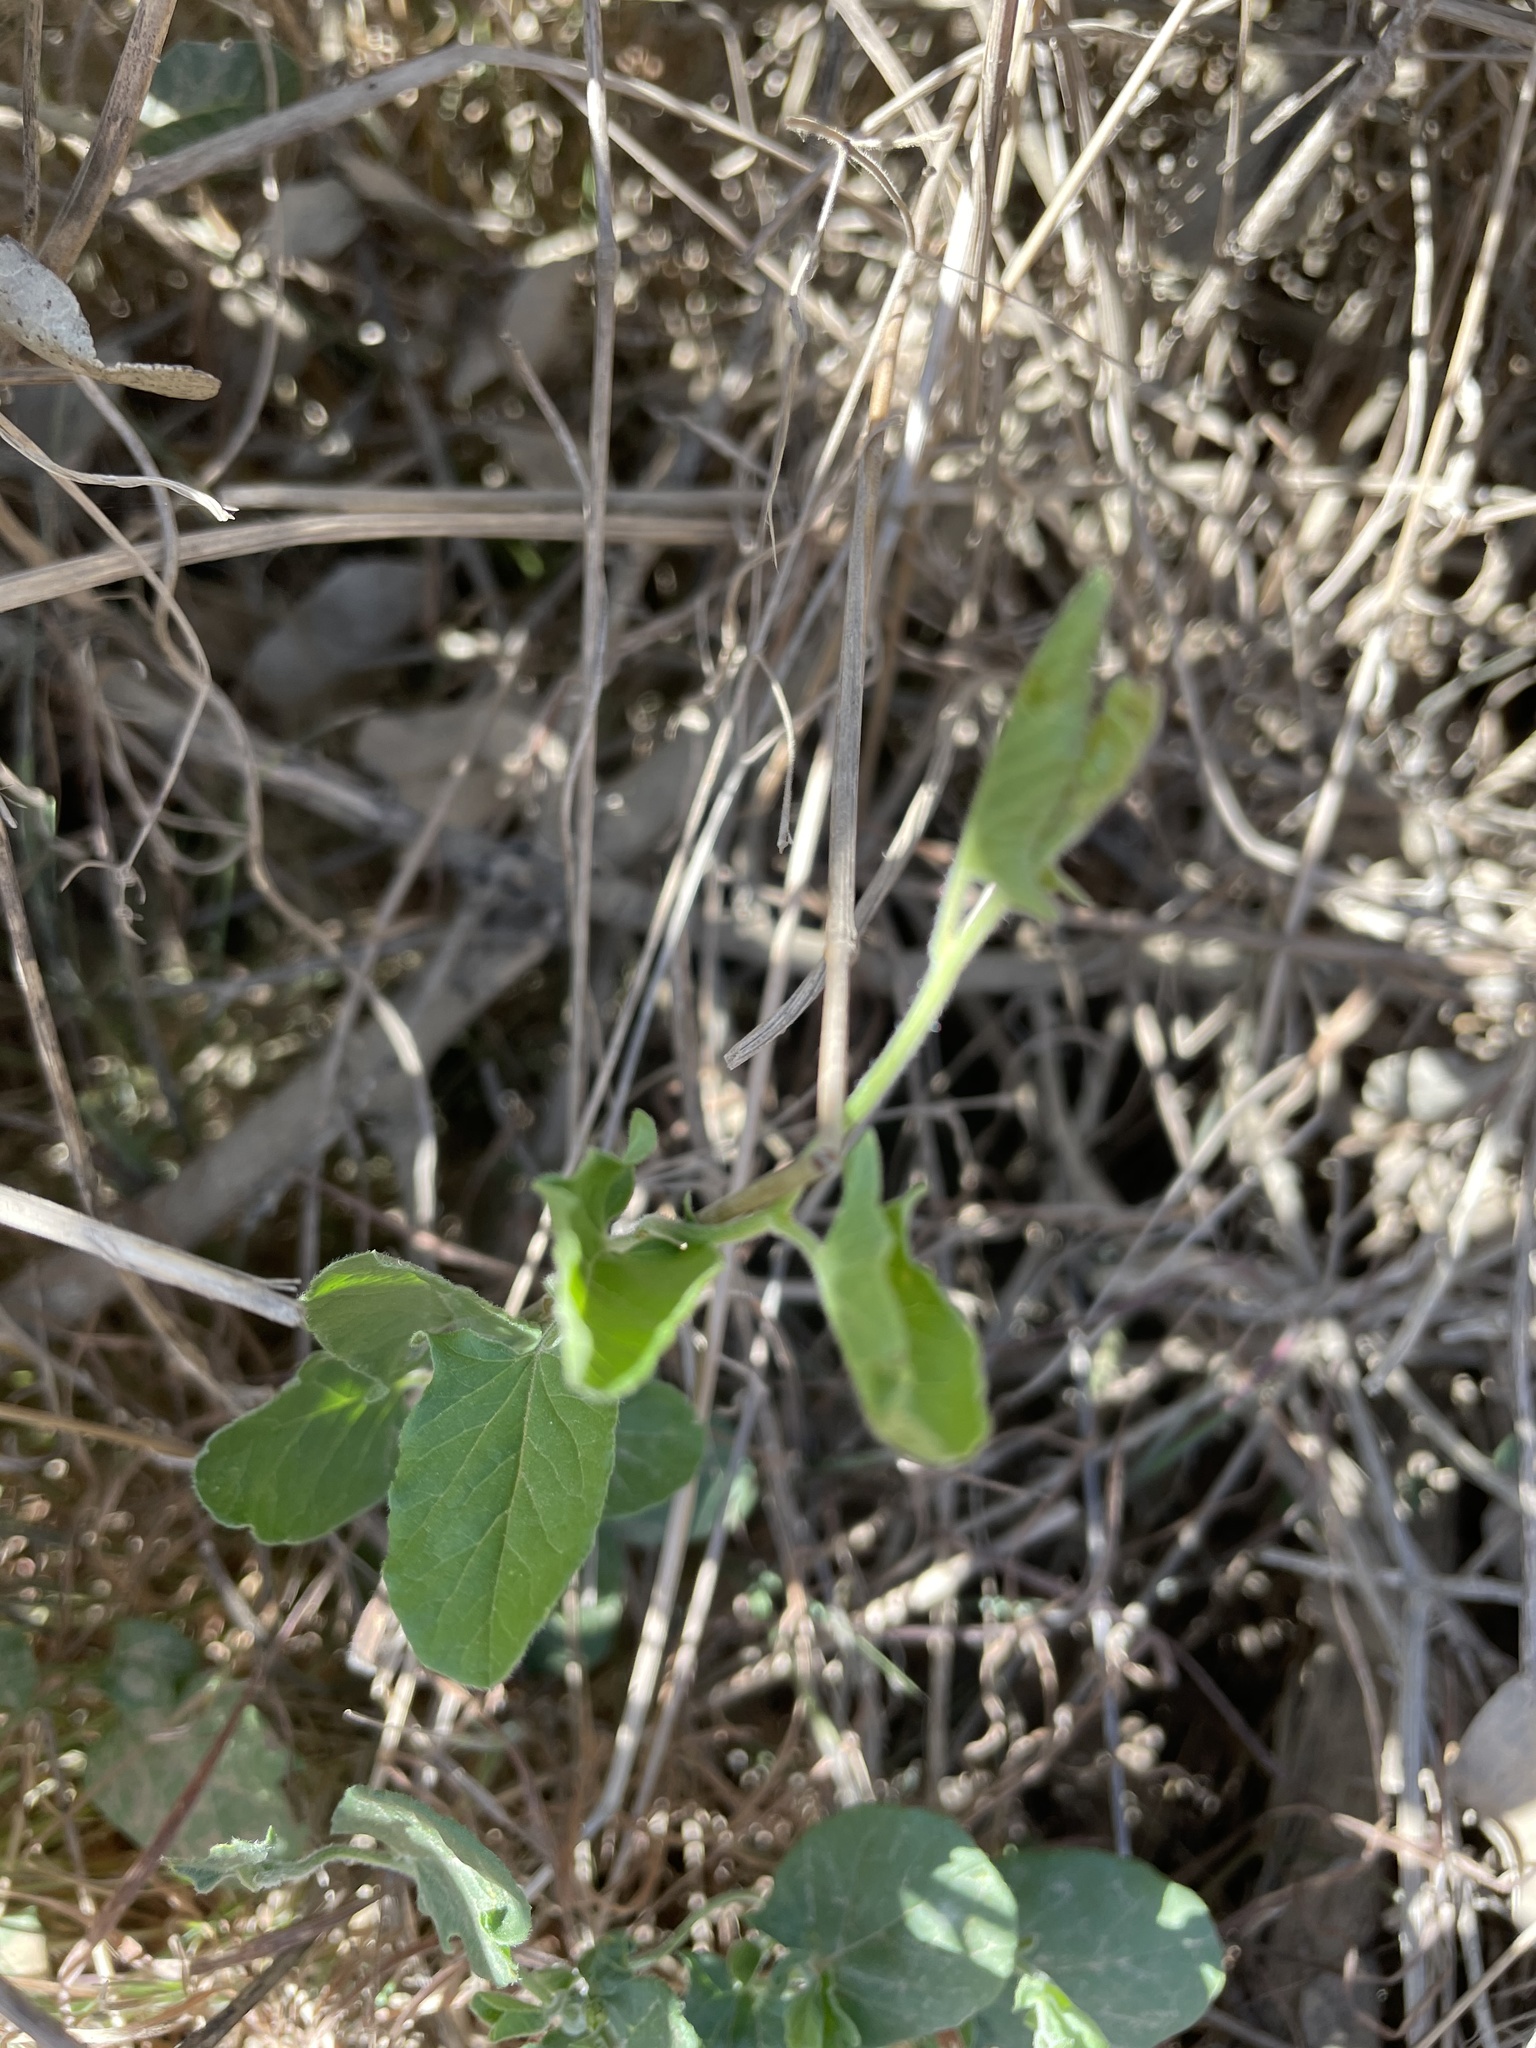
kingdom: Plantae
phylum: Tracheophyta
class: Magnoliopsida
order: Solanales
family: Convolvulaceae
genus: Convolvulus
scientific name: Convolvulus arvensis
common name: Field bindweed
